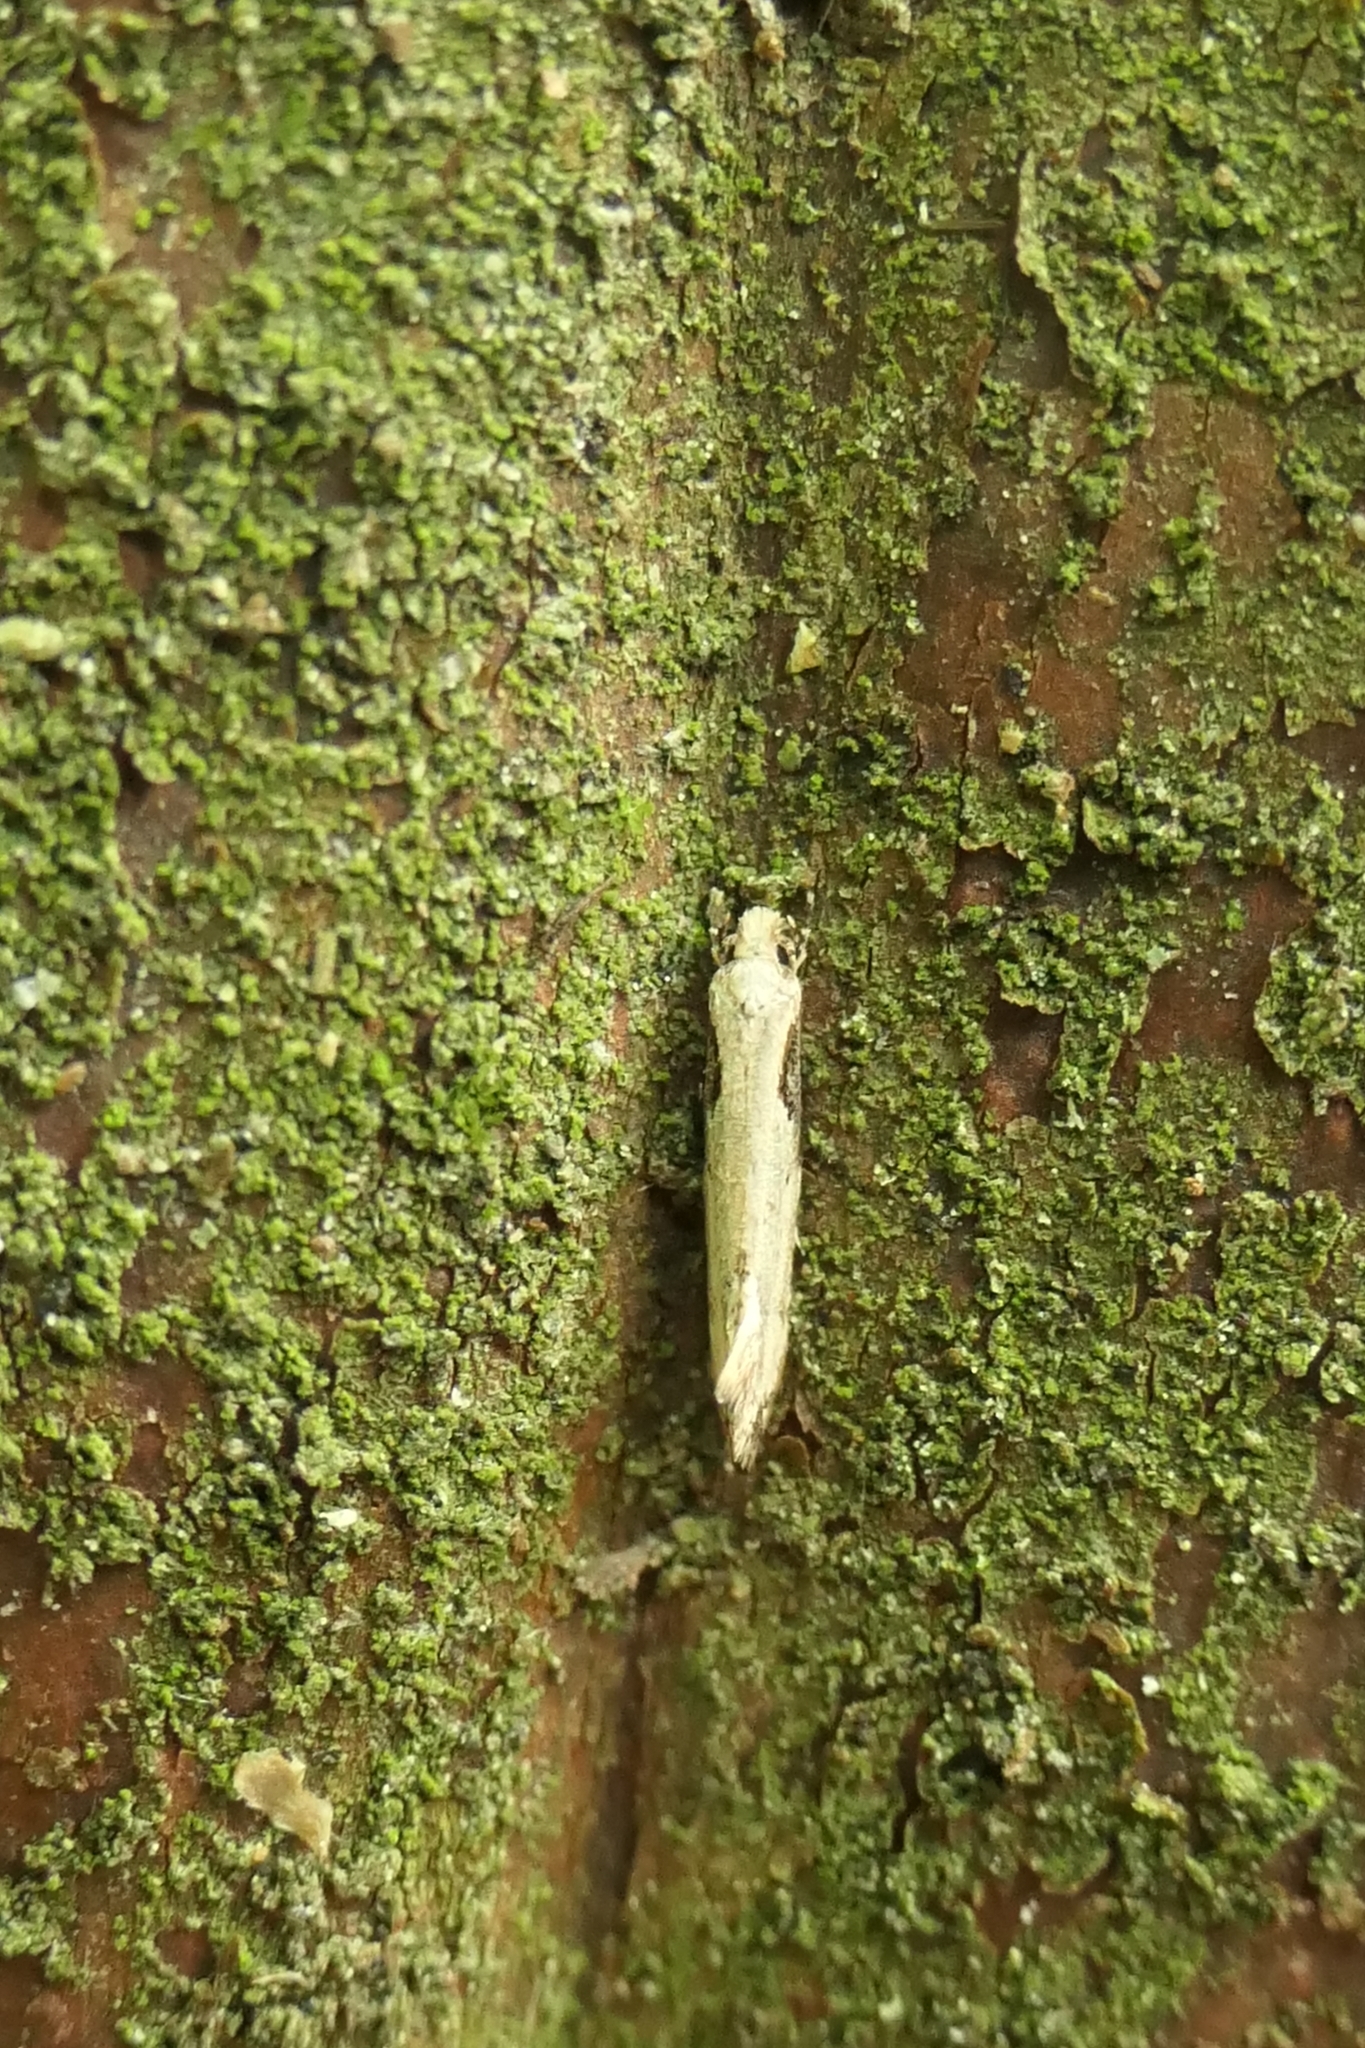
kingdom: Animalia
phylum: Arthropoda
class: Insecta
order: Lepidoptera
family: Tineidae
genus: Crypsitricha
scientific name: Crypsitricha pharotoma
